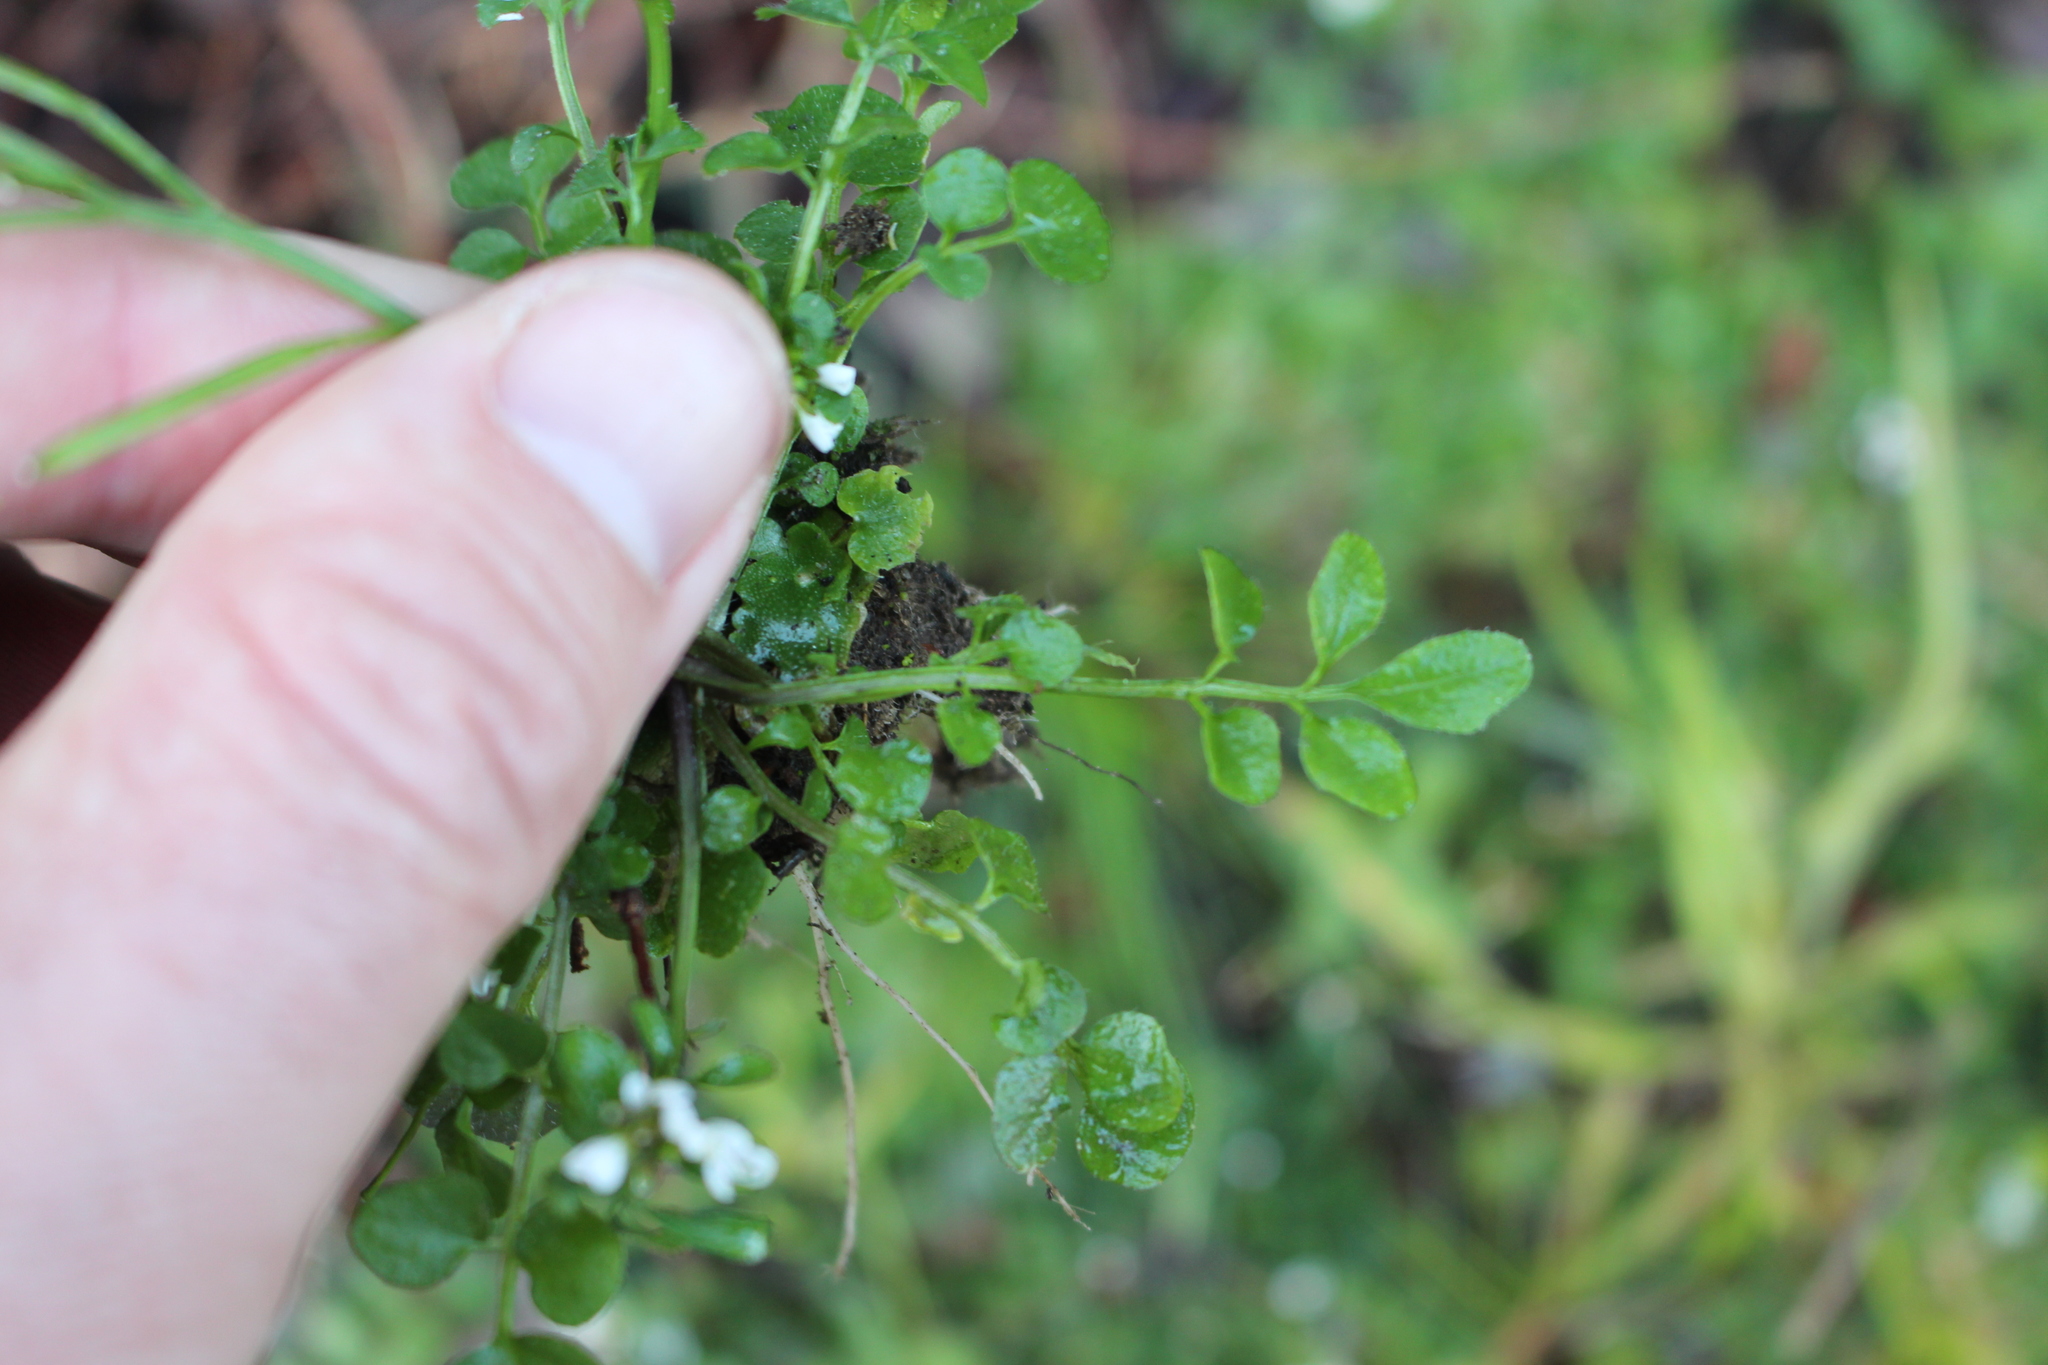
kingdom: Plantae
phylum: Tracheophyta
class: Magnoliopsida
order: Brassicales
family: Brassicaceae
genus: Cardamine
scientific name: Cardamine hirsuta
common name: Hairy bittercress
